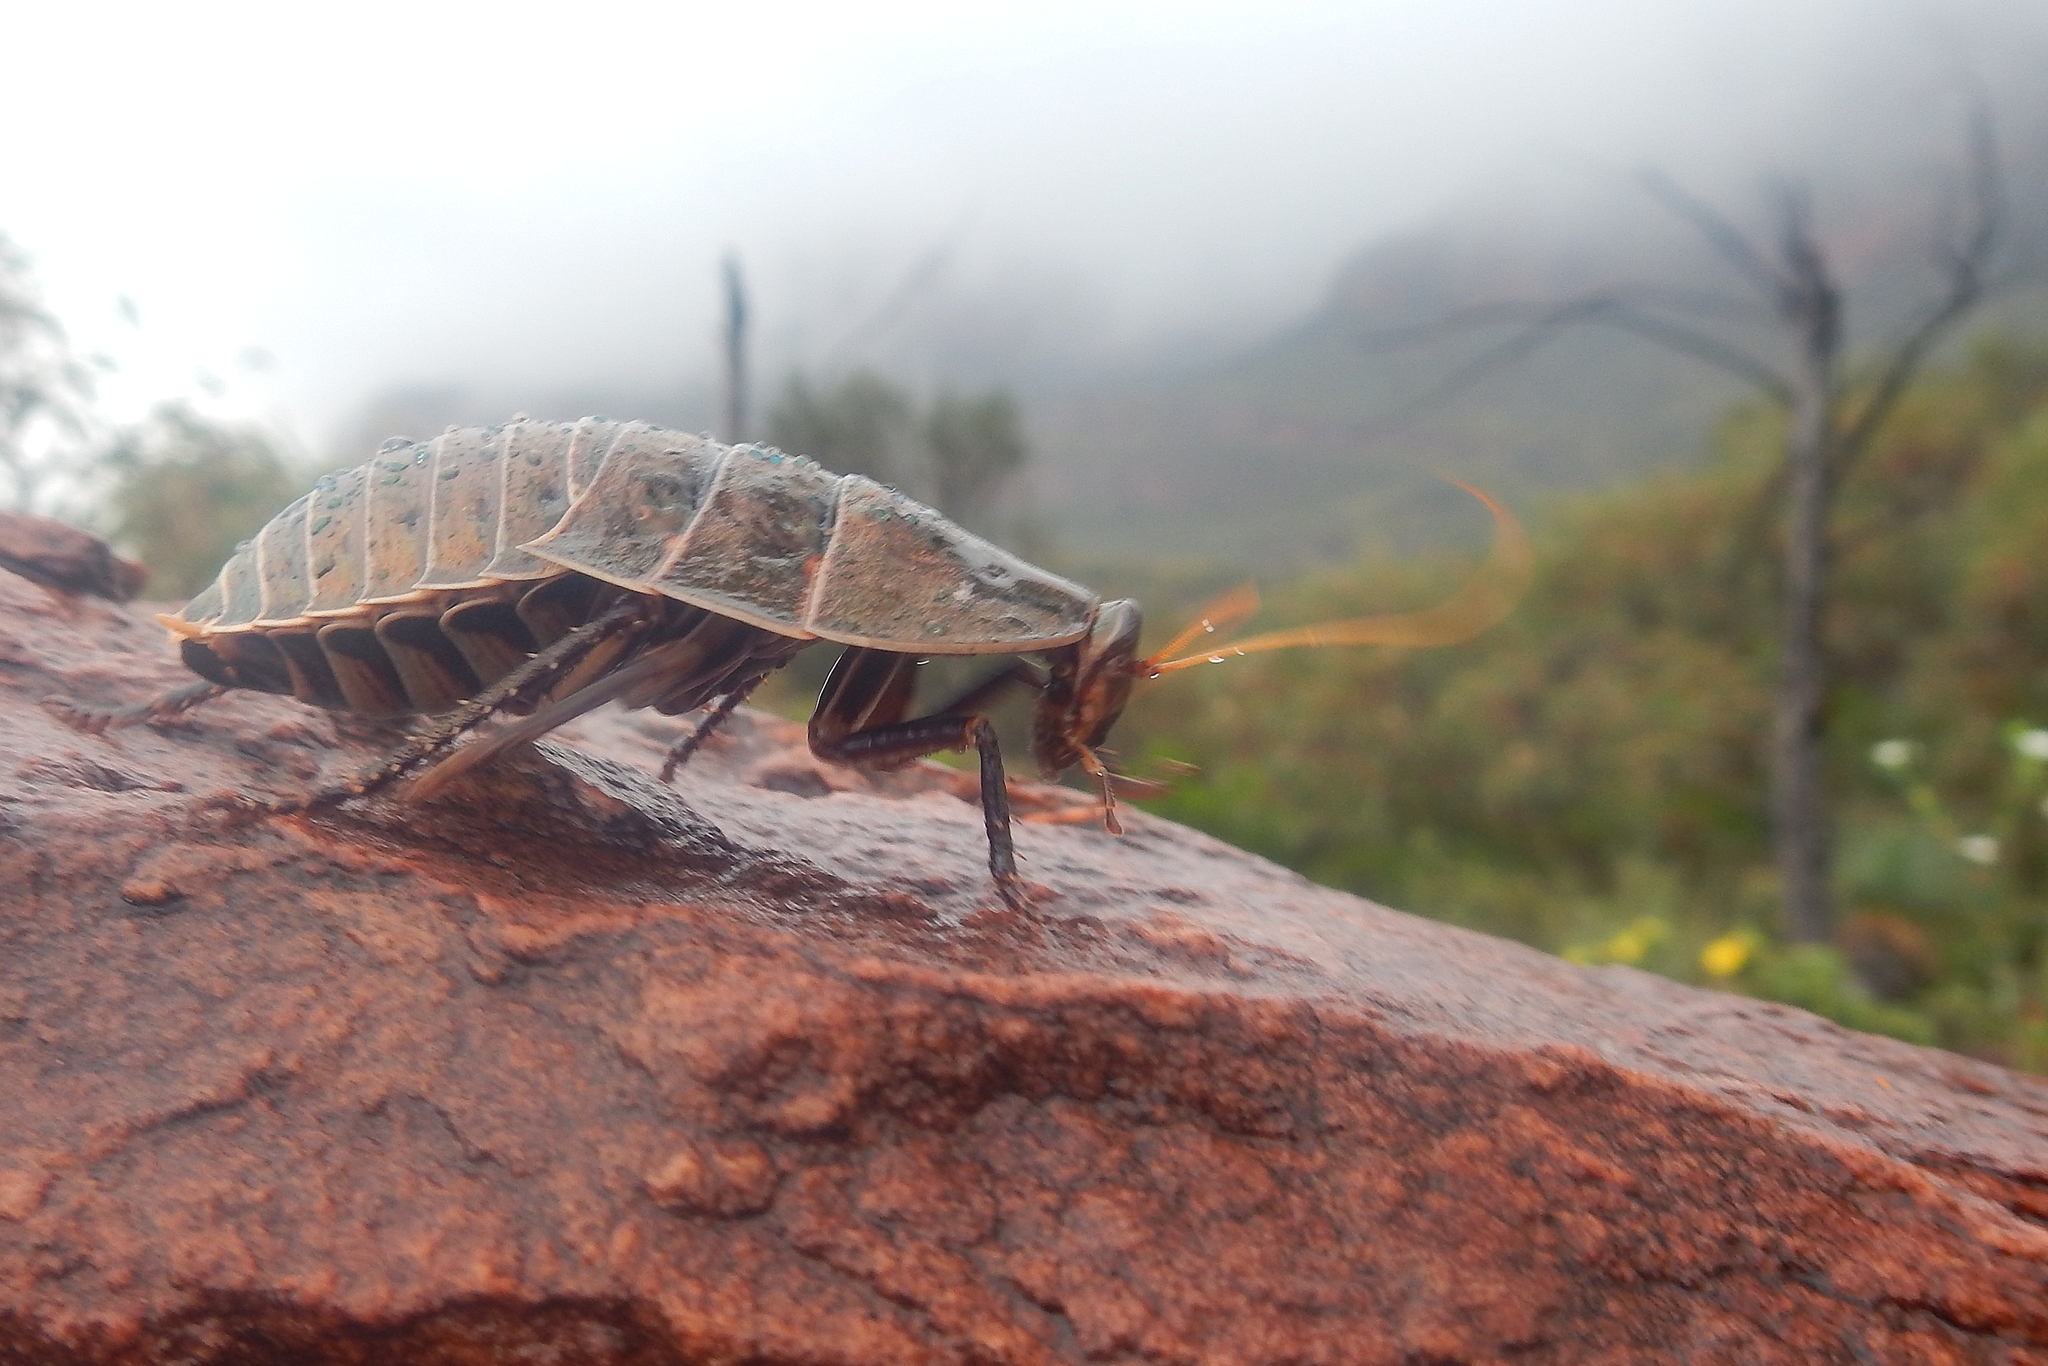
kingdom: Animalia
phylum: Arthropoda
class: Insecta
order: Blattodea
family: Blattidae
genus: Polyzosteria
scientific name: Polyzosteria obscuroviridis
